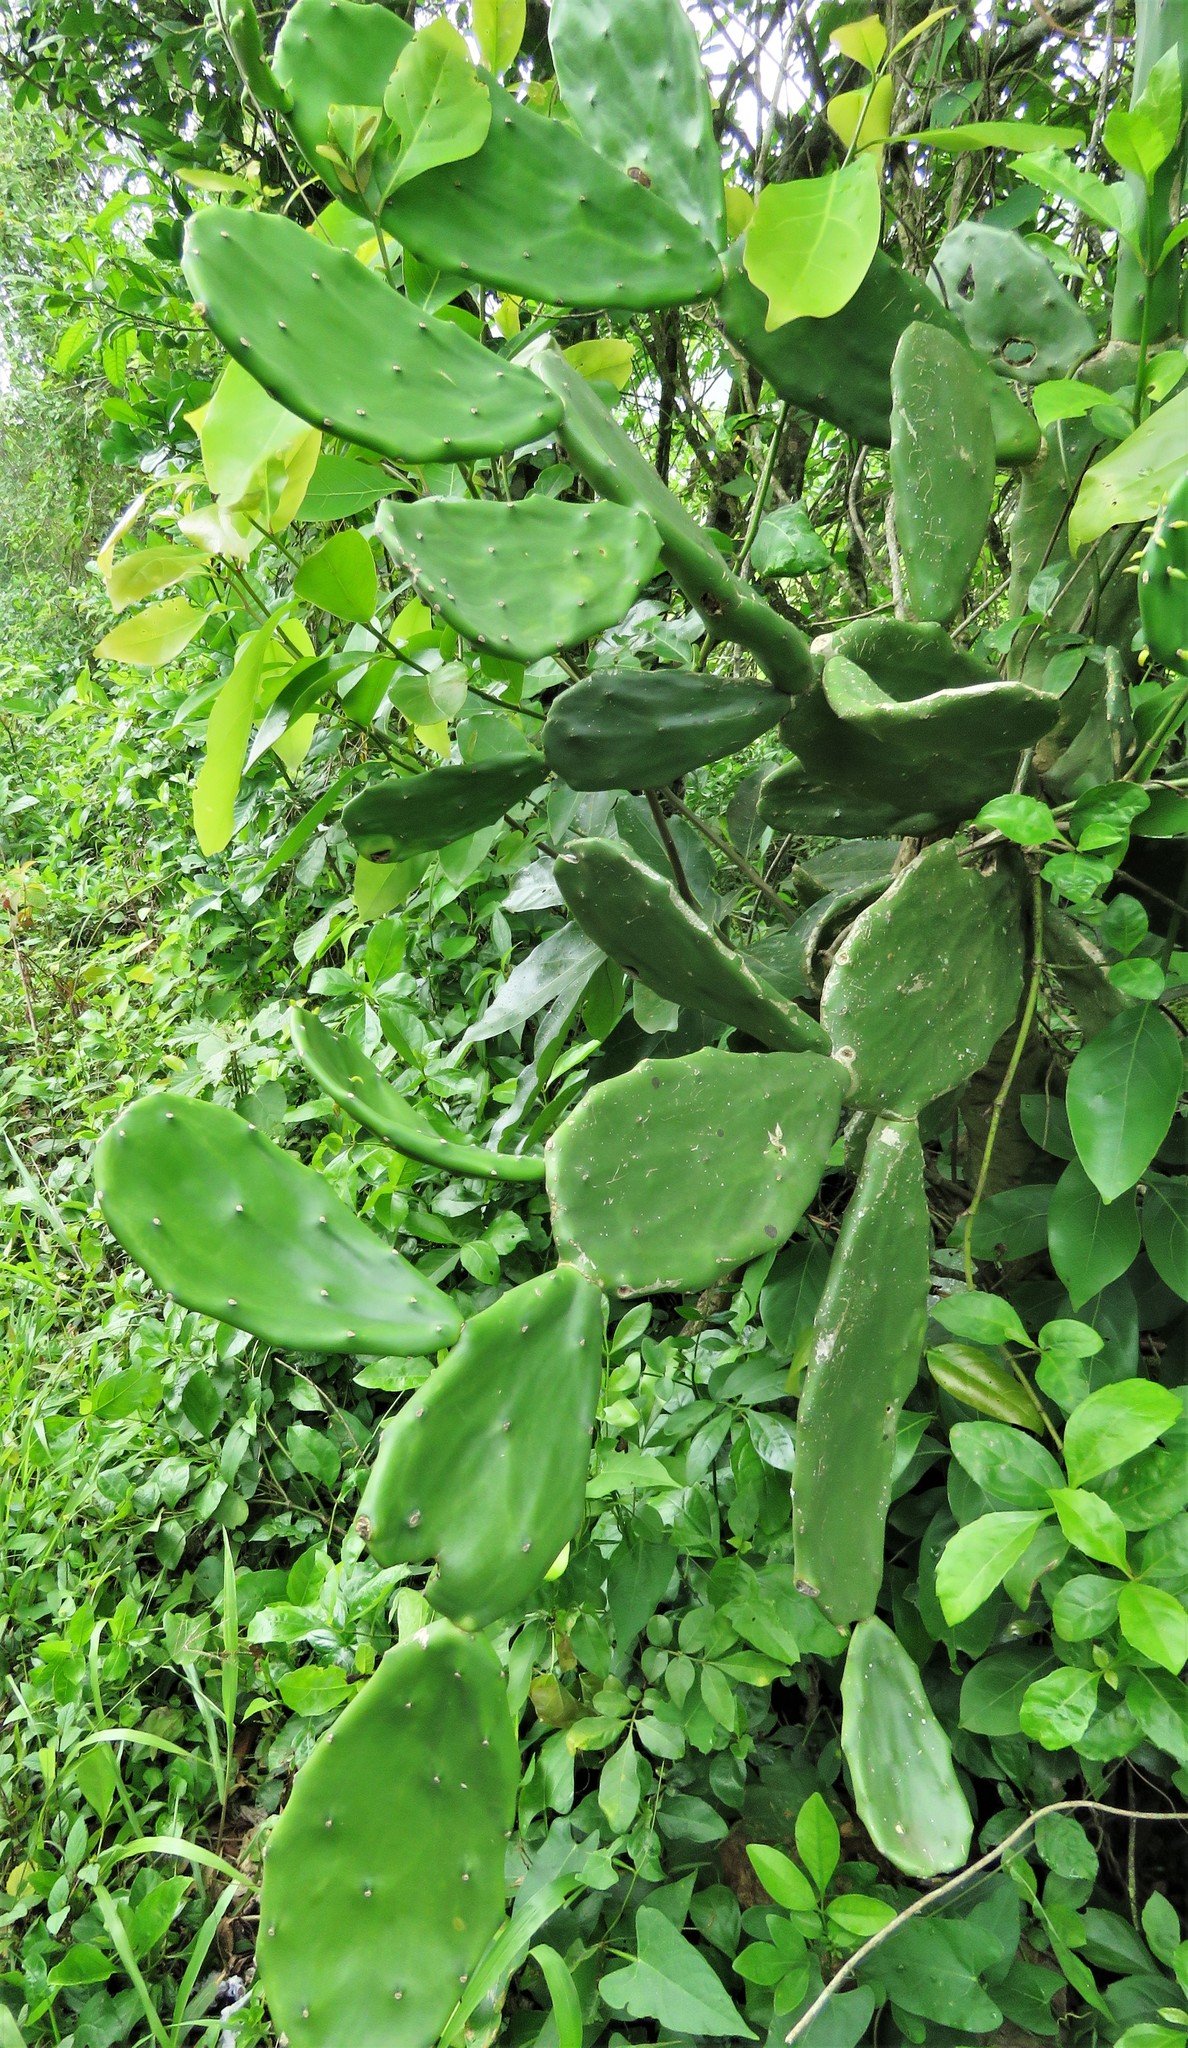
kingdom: Plantae
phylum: Tracheophyta
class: Magnoliopsida
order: Caryophyllales
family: Cactaceae
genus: Opuntia
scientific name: Opuntia cochenillifera
